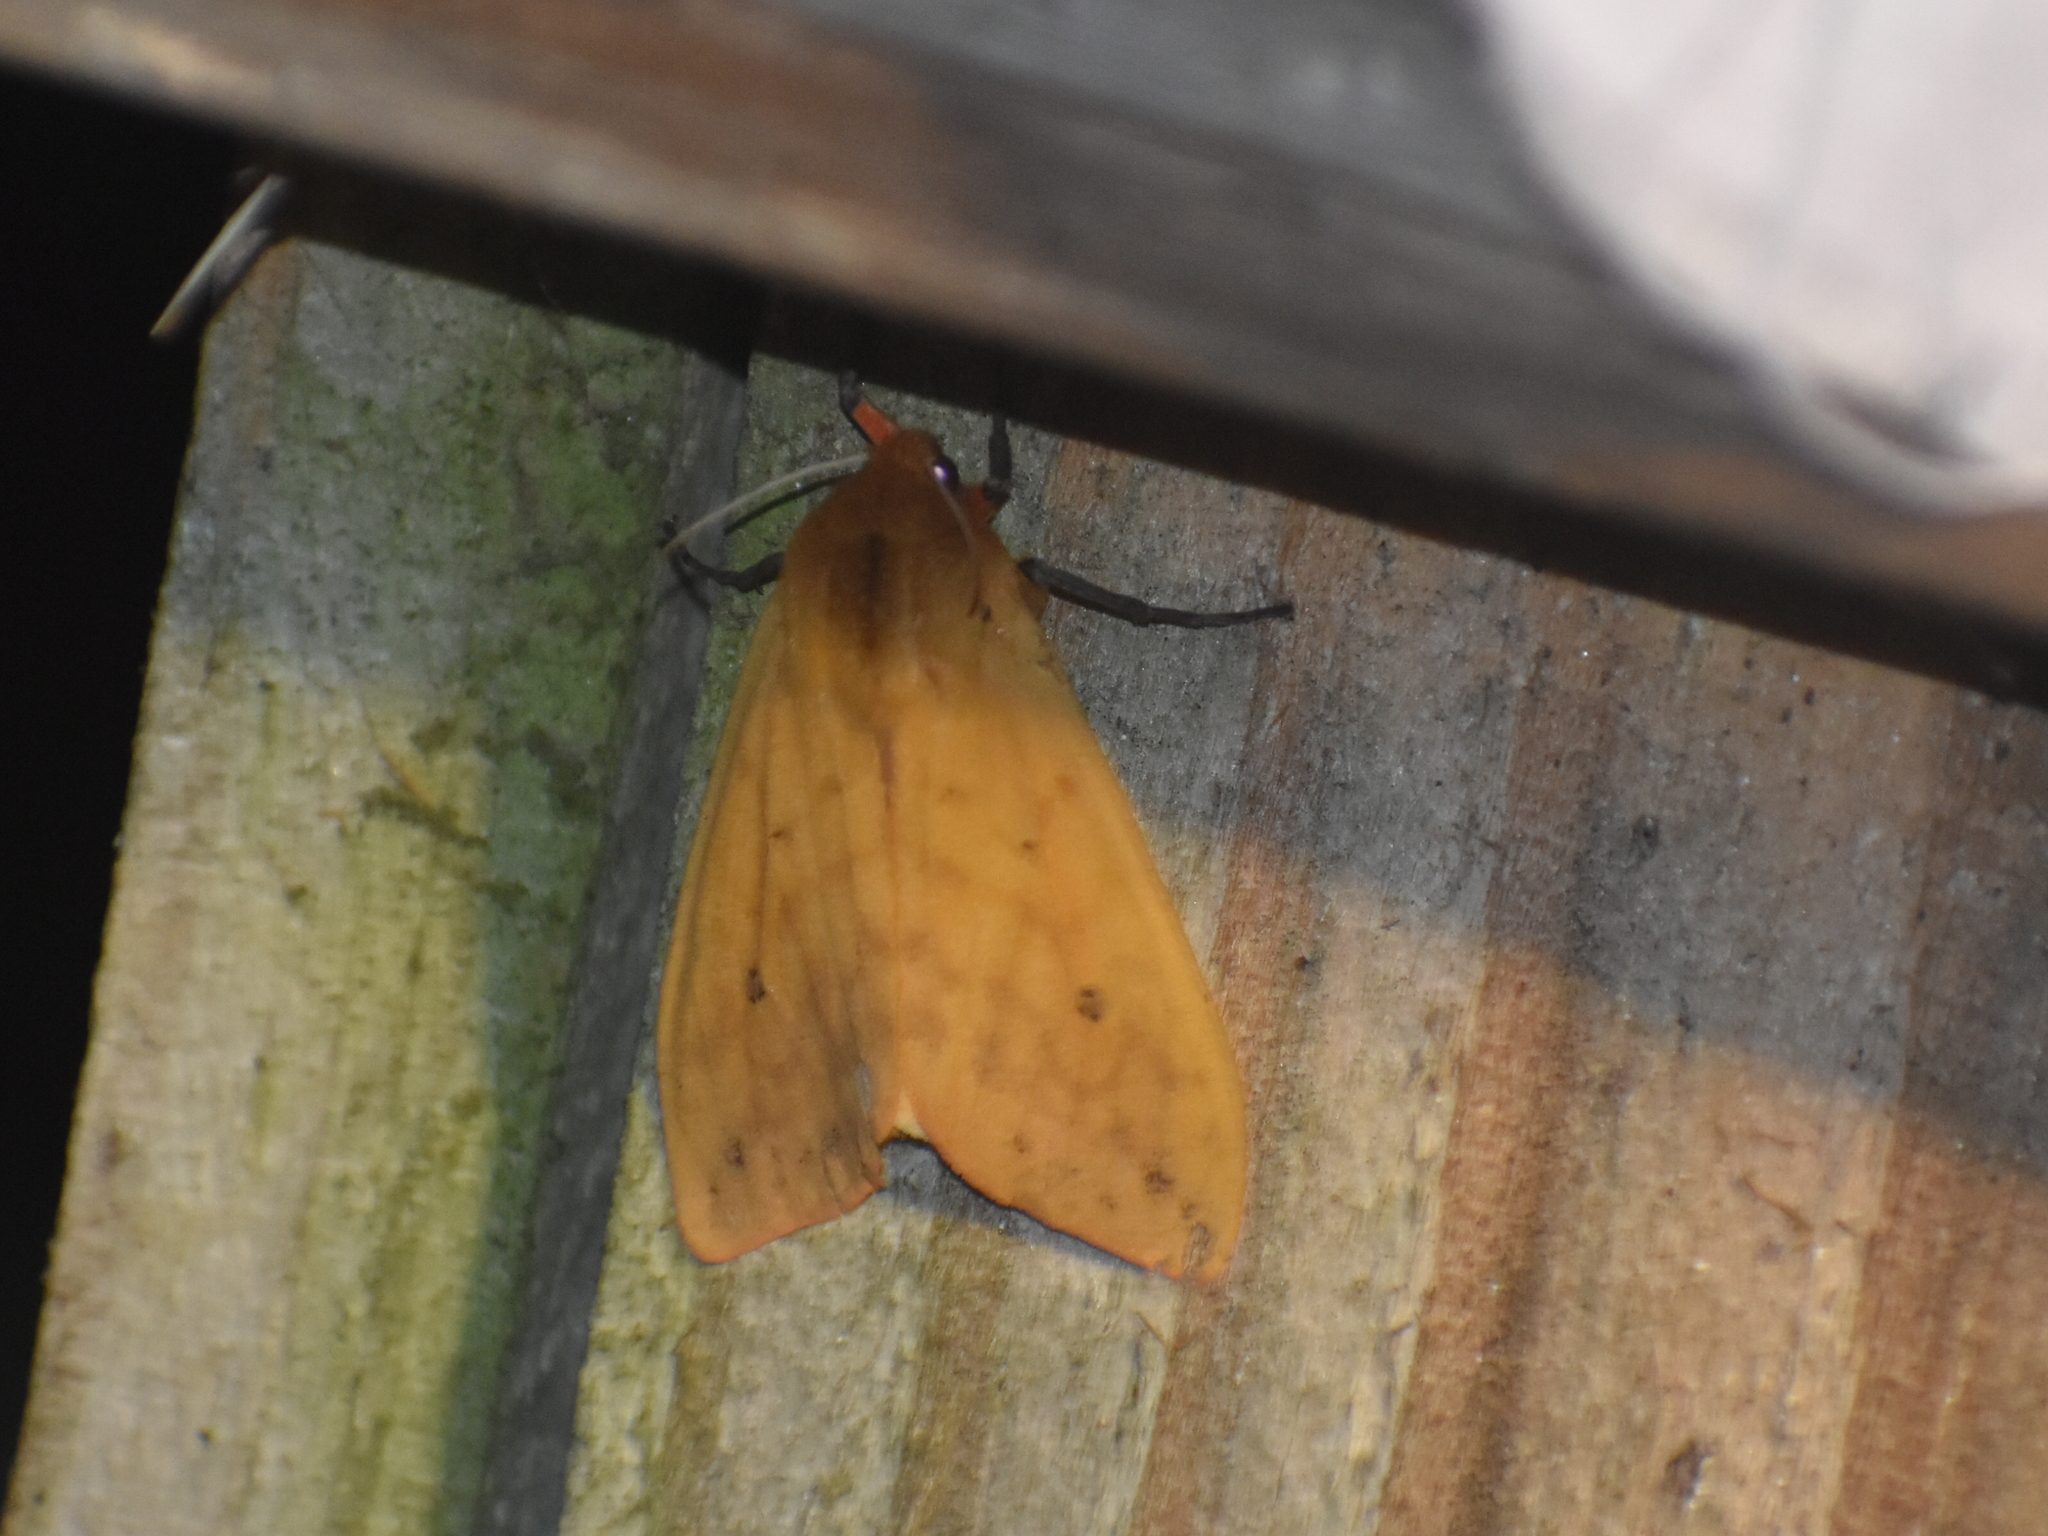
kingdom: Animalia
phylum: Arthropoda
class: Insecta
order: Lepidoptera
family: Erebidae
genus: Pyrrharctia
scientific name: Pyrrharctia isabella
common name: Isabella tiger moth
